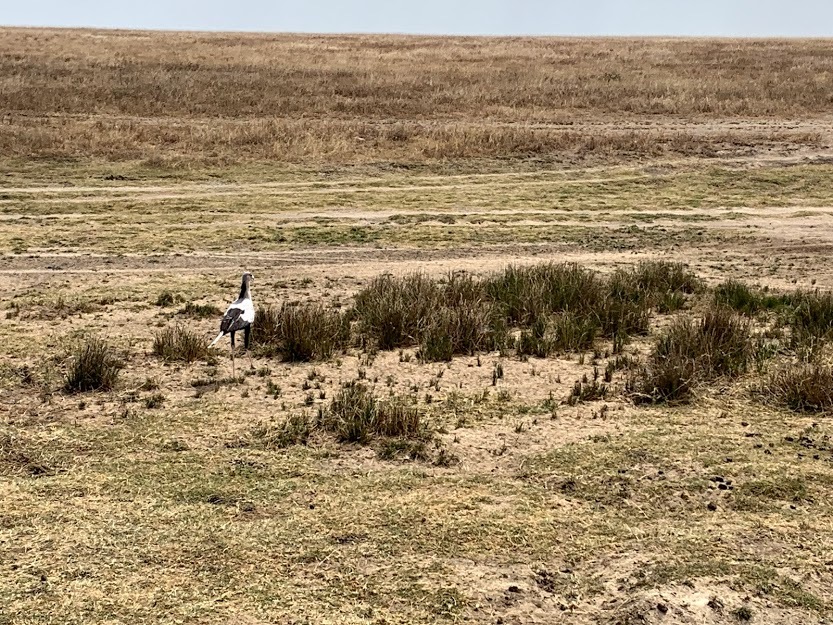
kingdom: Animalia
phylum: Chordata
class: Aves
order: Accipitriformes
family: Sagittariidae
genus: Sagittarius
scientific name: Sagittarius serpentarius
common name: Secretarybird
